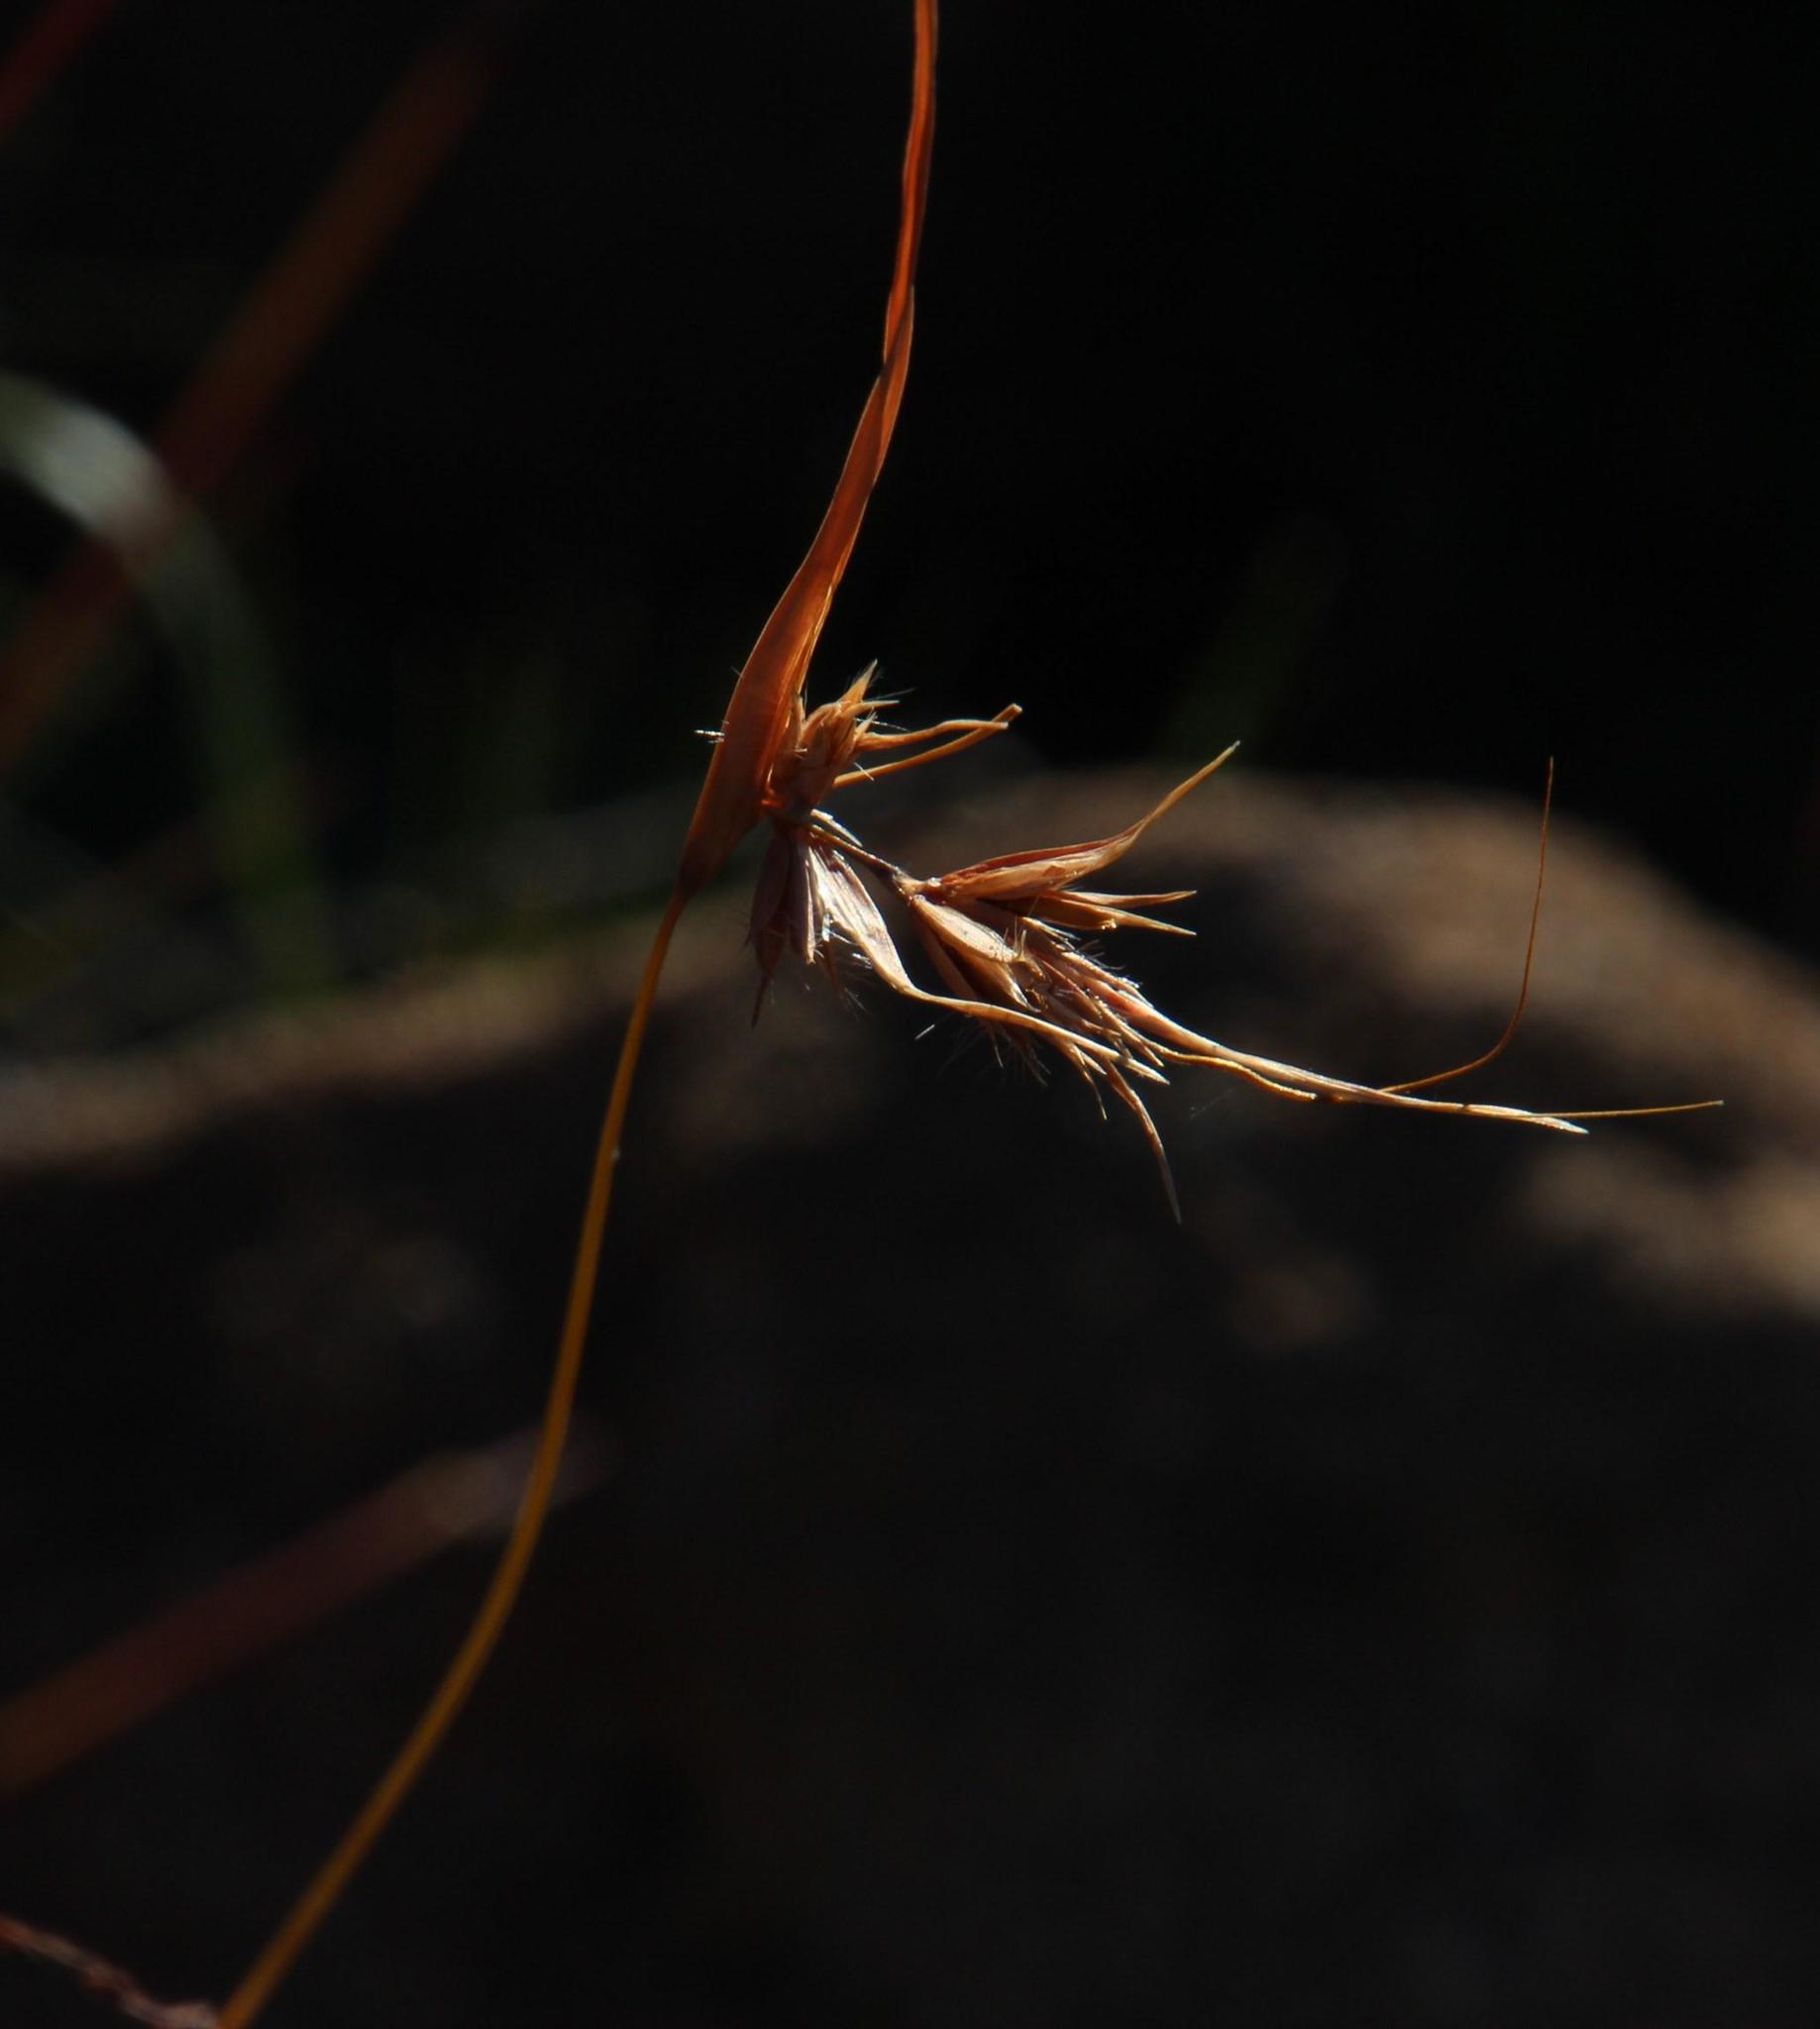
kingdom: Plantae
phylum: Tracheophyta
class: Liliopsida
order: Poales
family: Poaceae
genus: Themeda
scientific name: Themeda triandra
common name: Kangaroo grass
